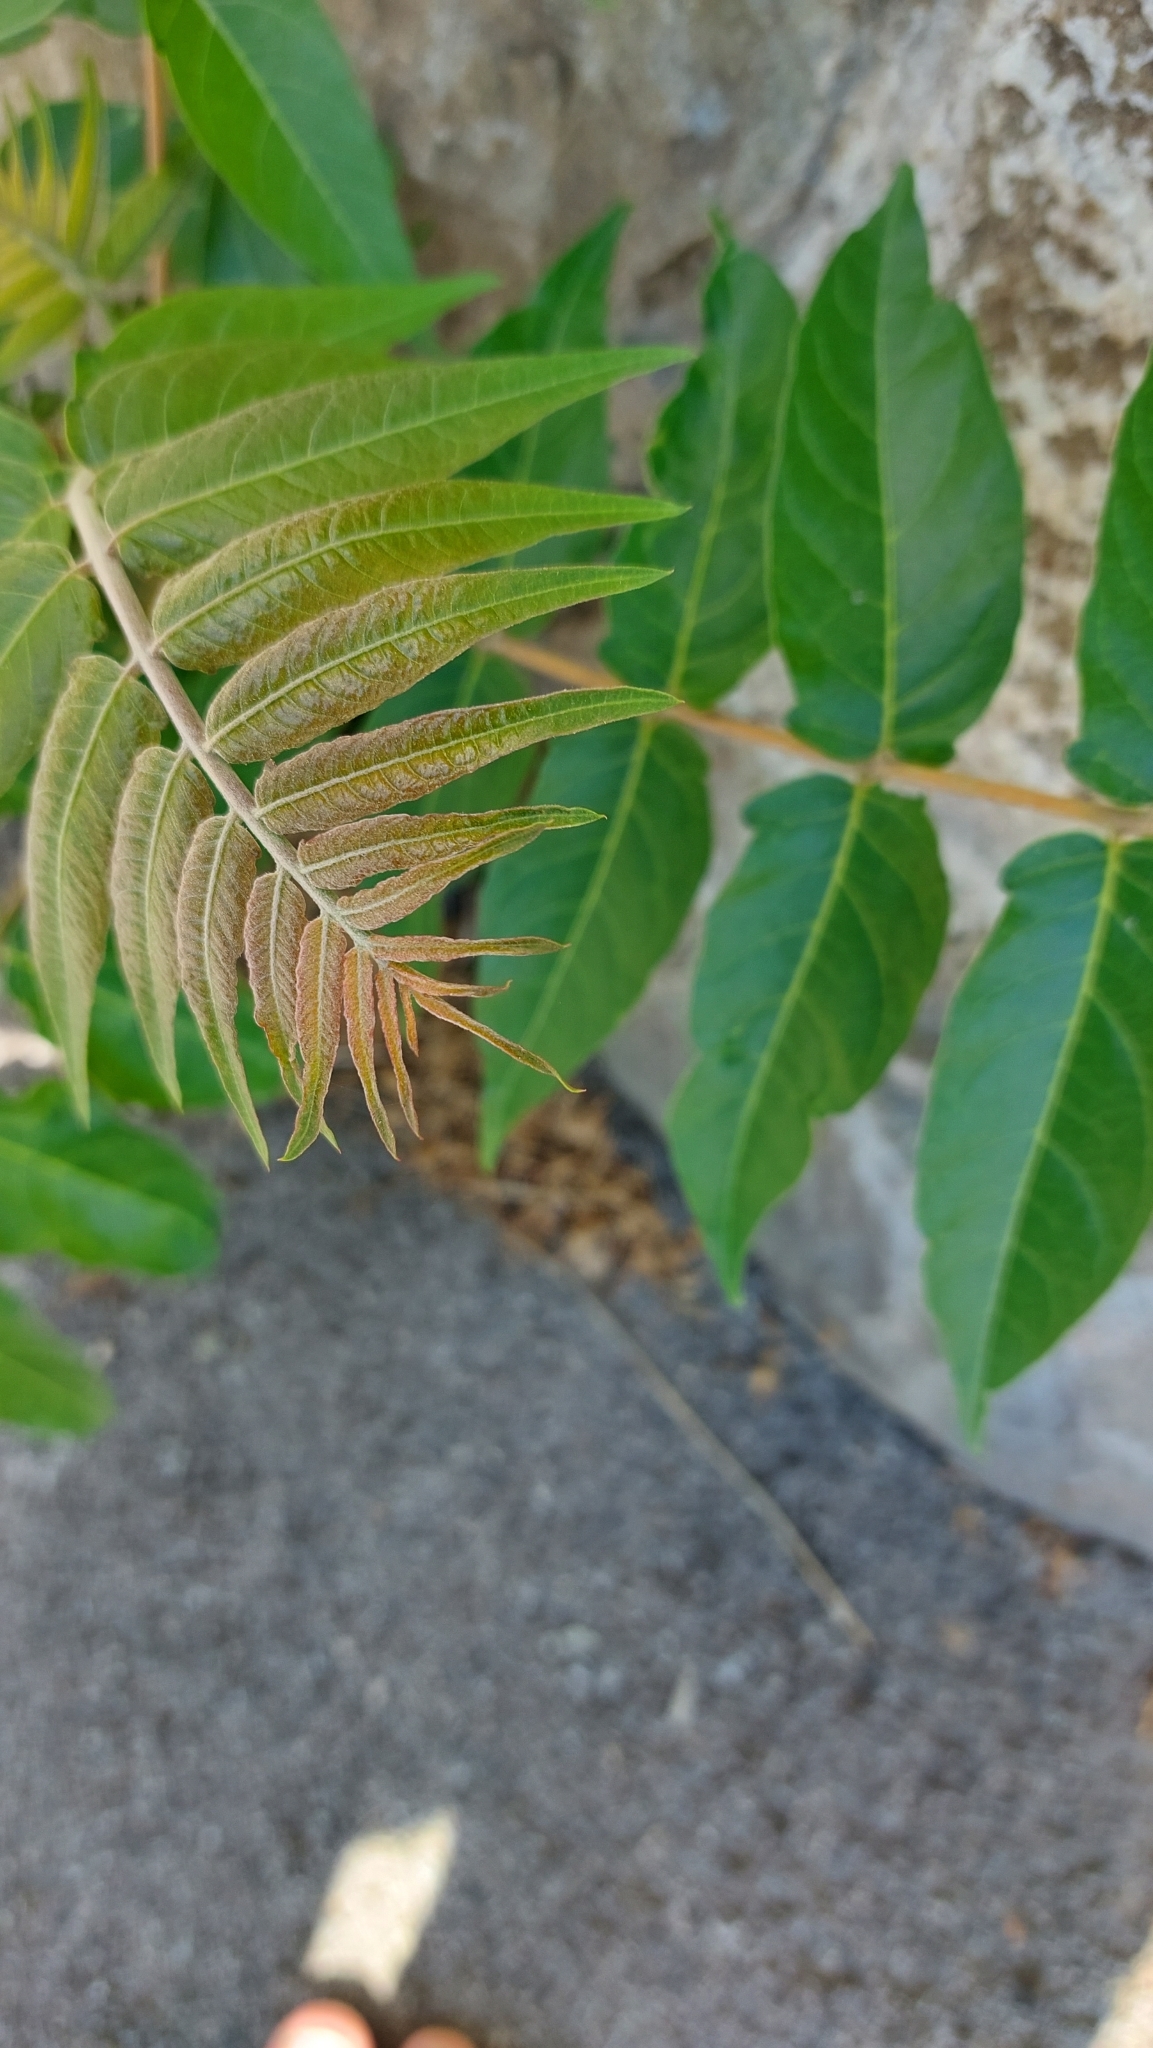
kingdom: Plantae
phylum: Tracheophyta
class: Magnoliopsida
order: Sapindales
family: Simaroubaceae
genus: Ailanthus
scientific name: Ailanthus altissima
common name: Tree-of-heaven
